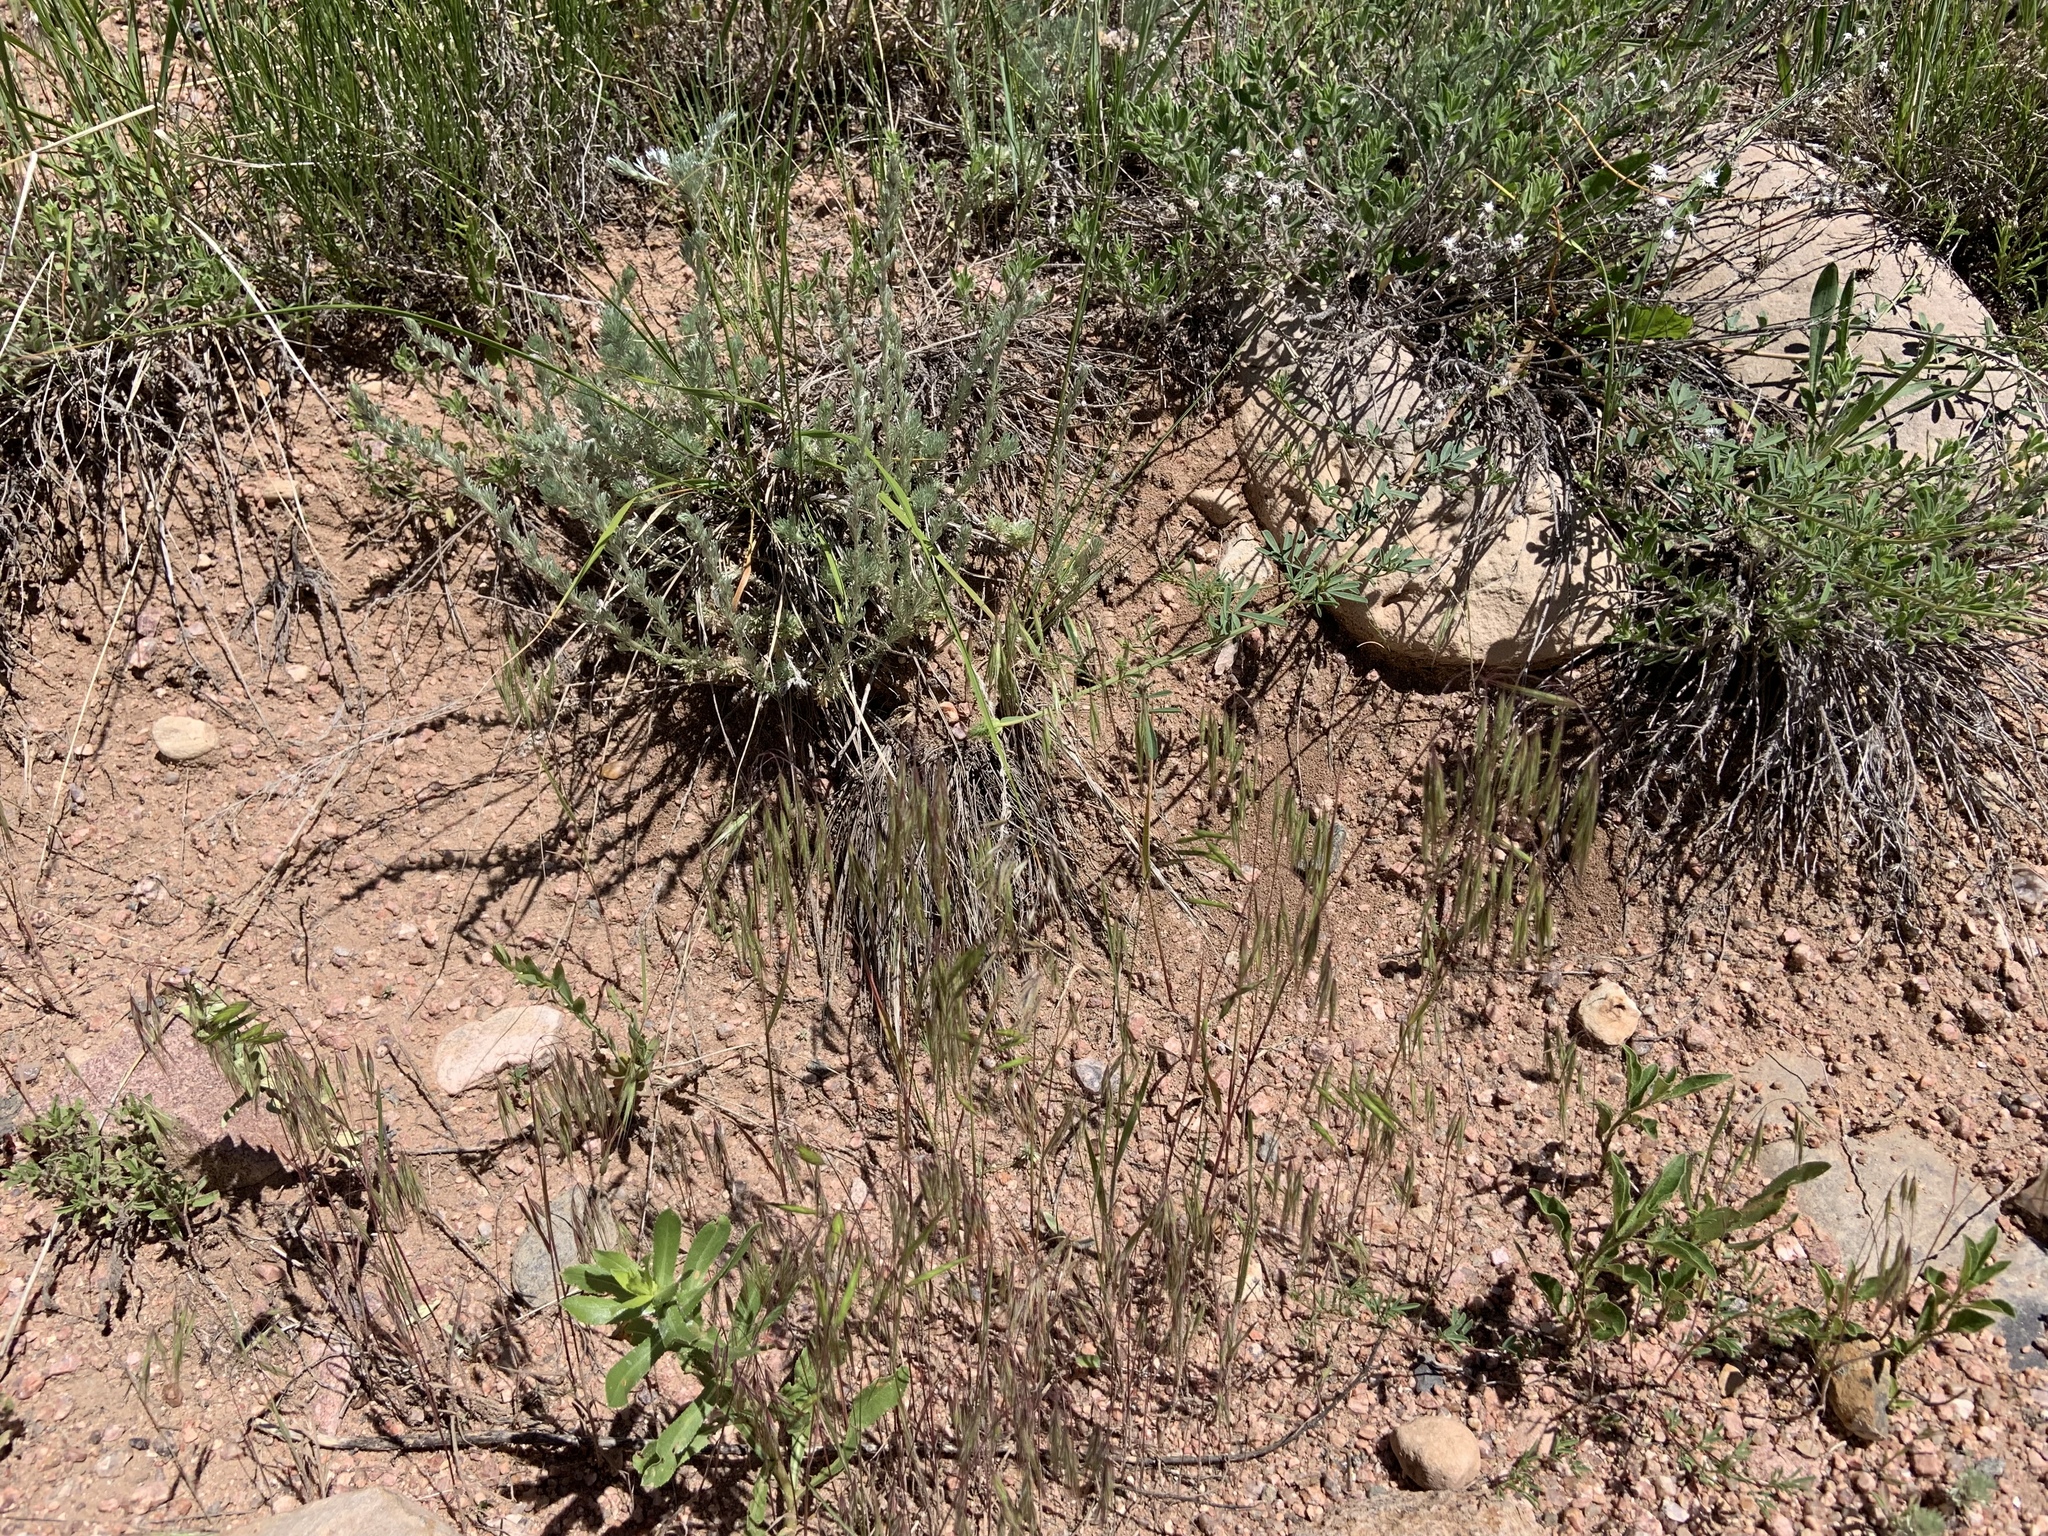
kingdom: Plantae
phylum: Tracheophyta
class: Liliopsida
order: Poales
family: Poaceae
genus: Bromus
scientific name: Bromus tectorum
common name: Cheatgrass
